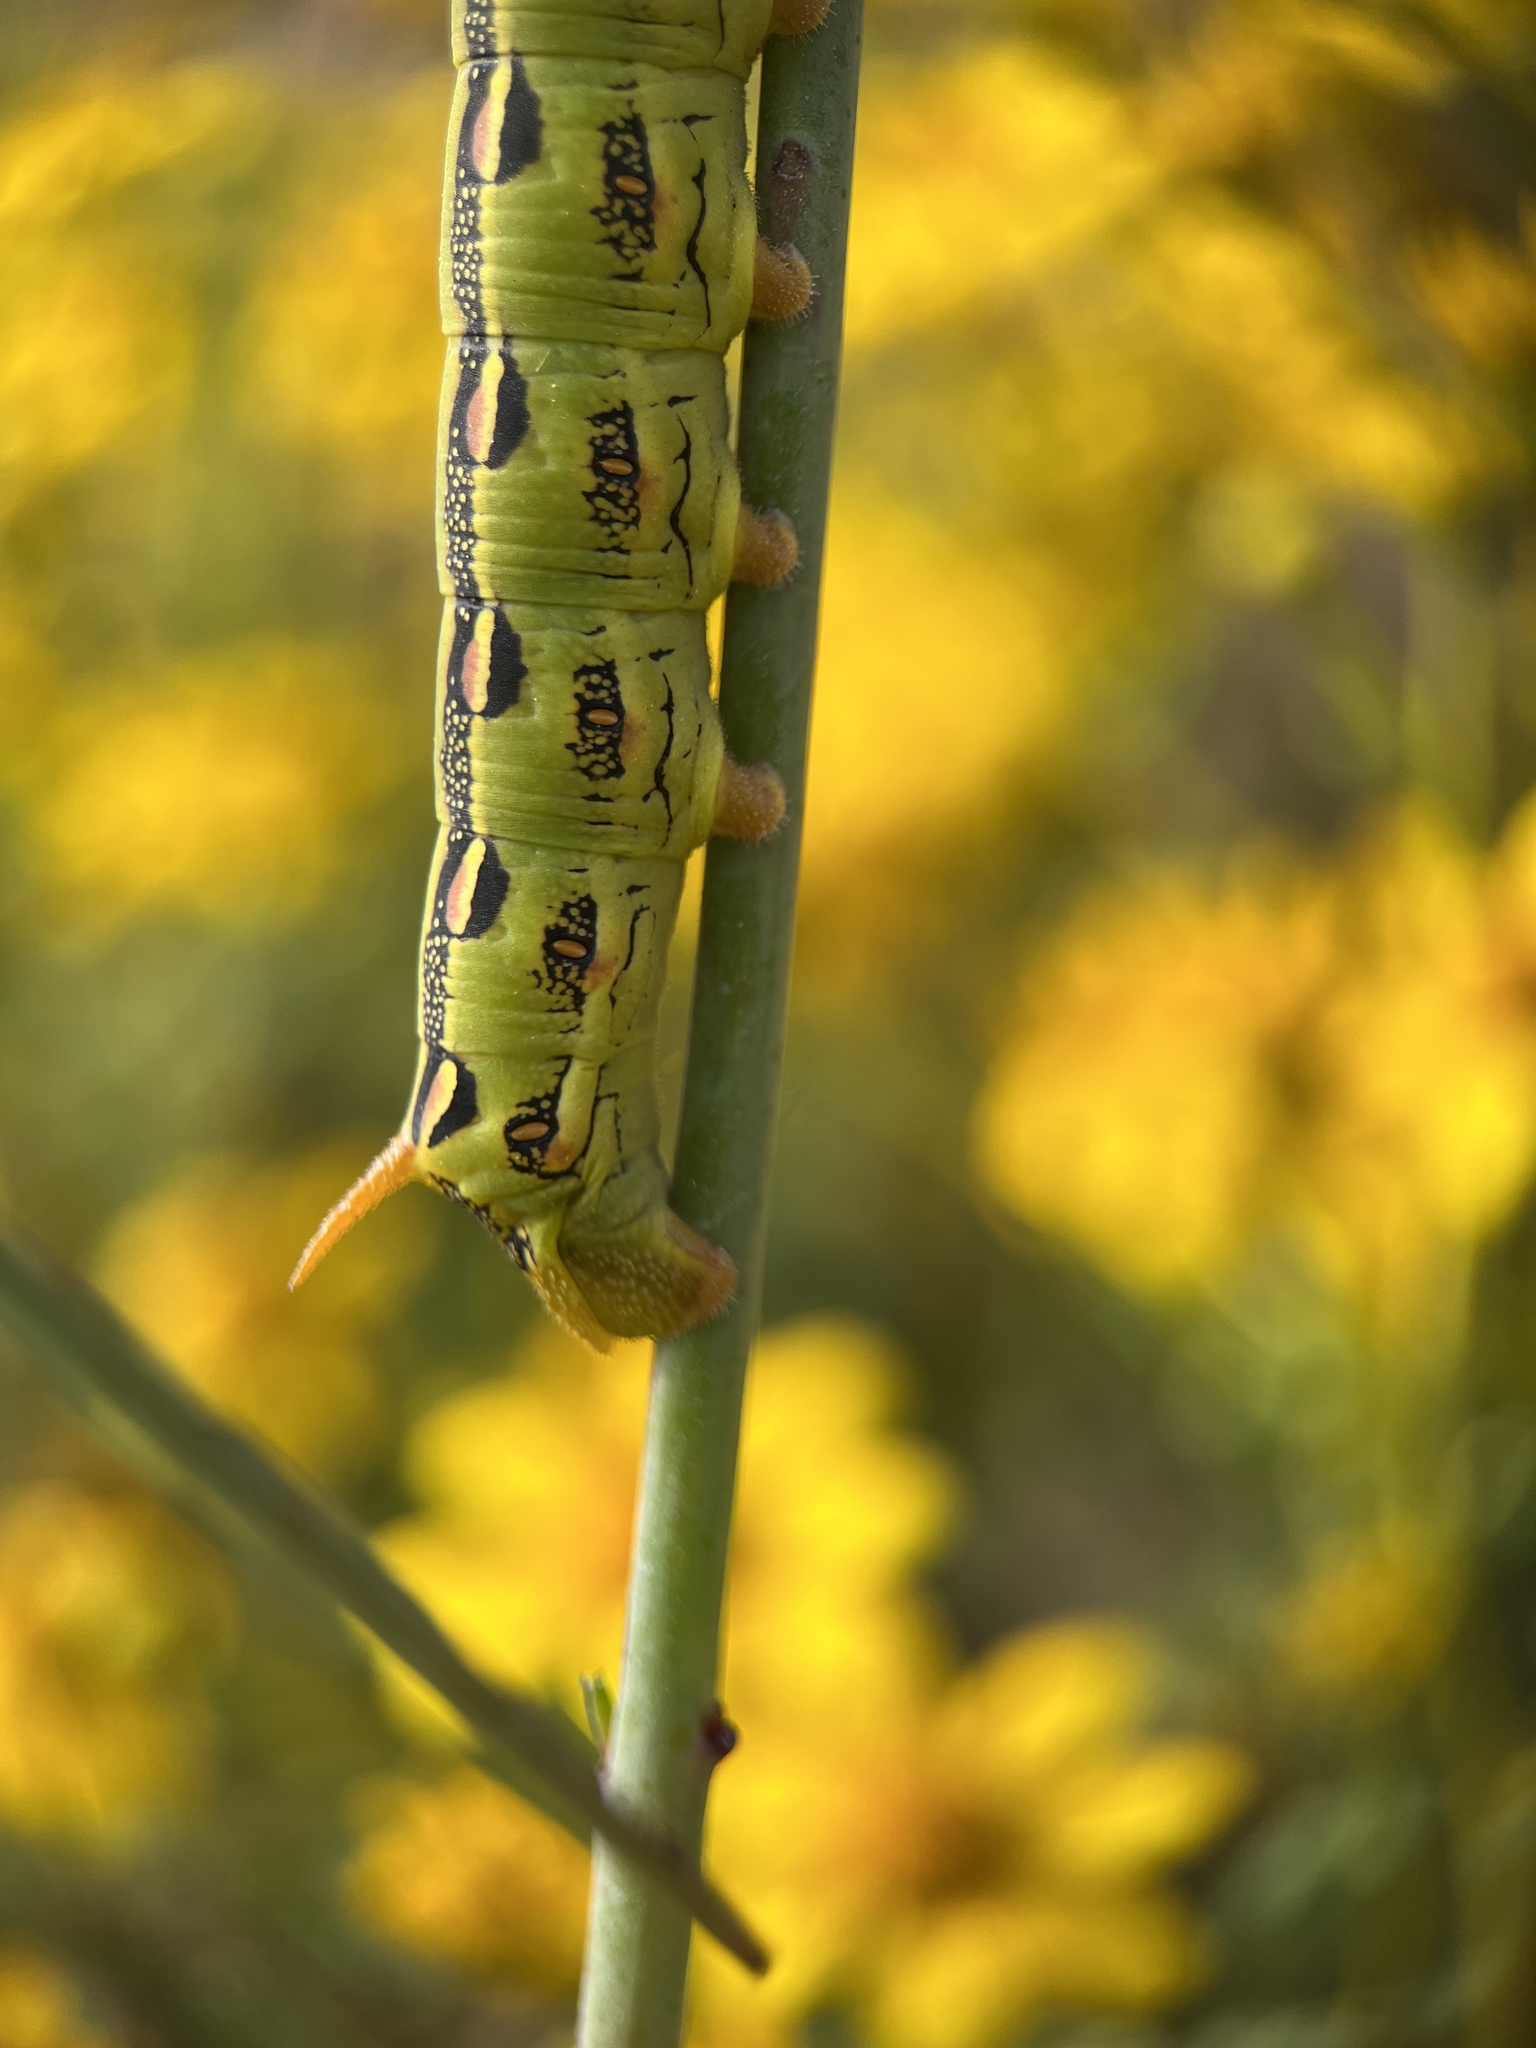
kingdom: Animalia
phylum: Arthropoda
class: Insecta
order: Lepidoptera
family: Sphingidae
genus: Hyles
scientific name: Hyles lineata
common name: White-lined sphinx
